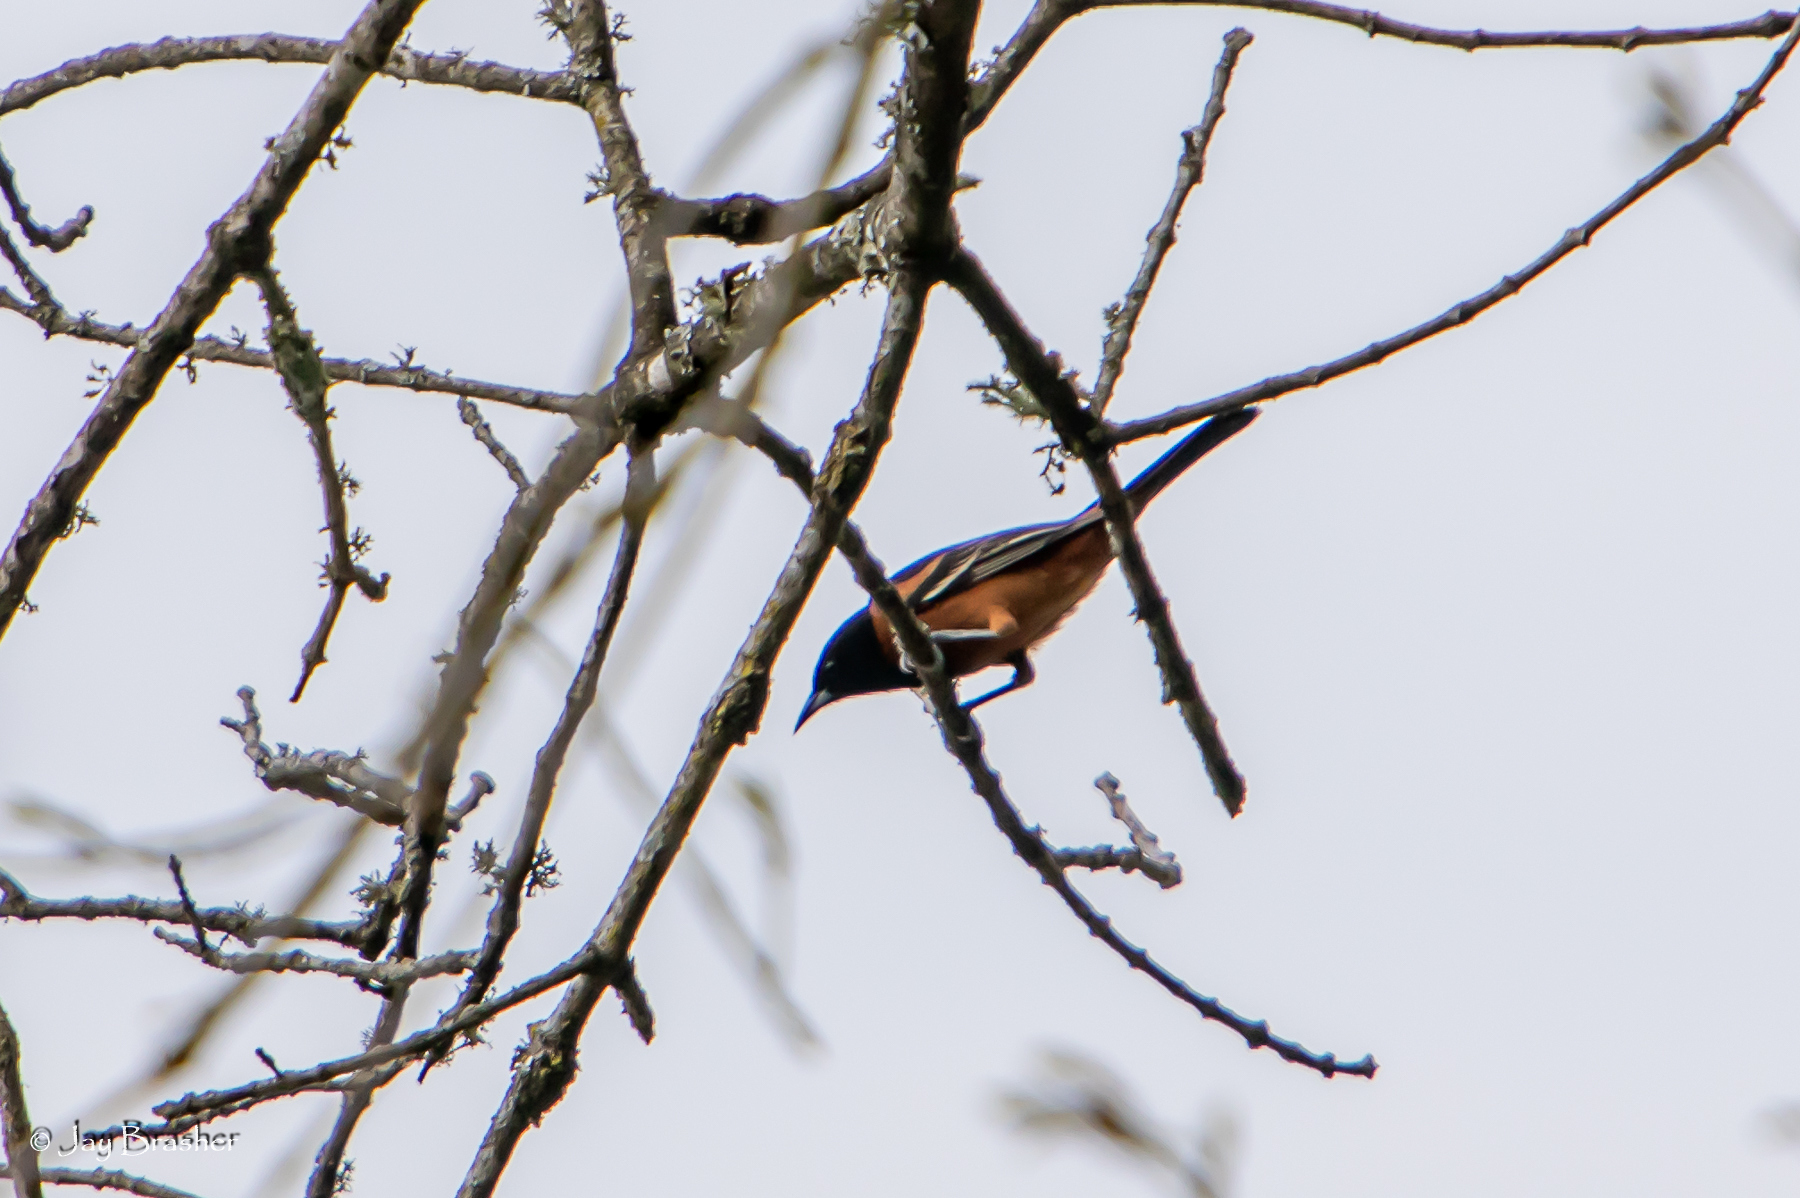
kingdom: Animalia
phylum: Chordata
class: Aves
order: Passeriformes
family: Icteridae
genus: Icterus
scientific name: Icterus spurius
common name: Orchard oriole
